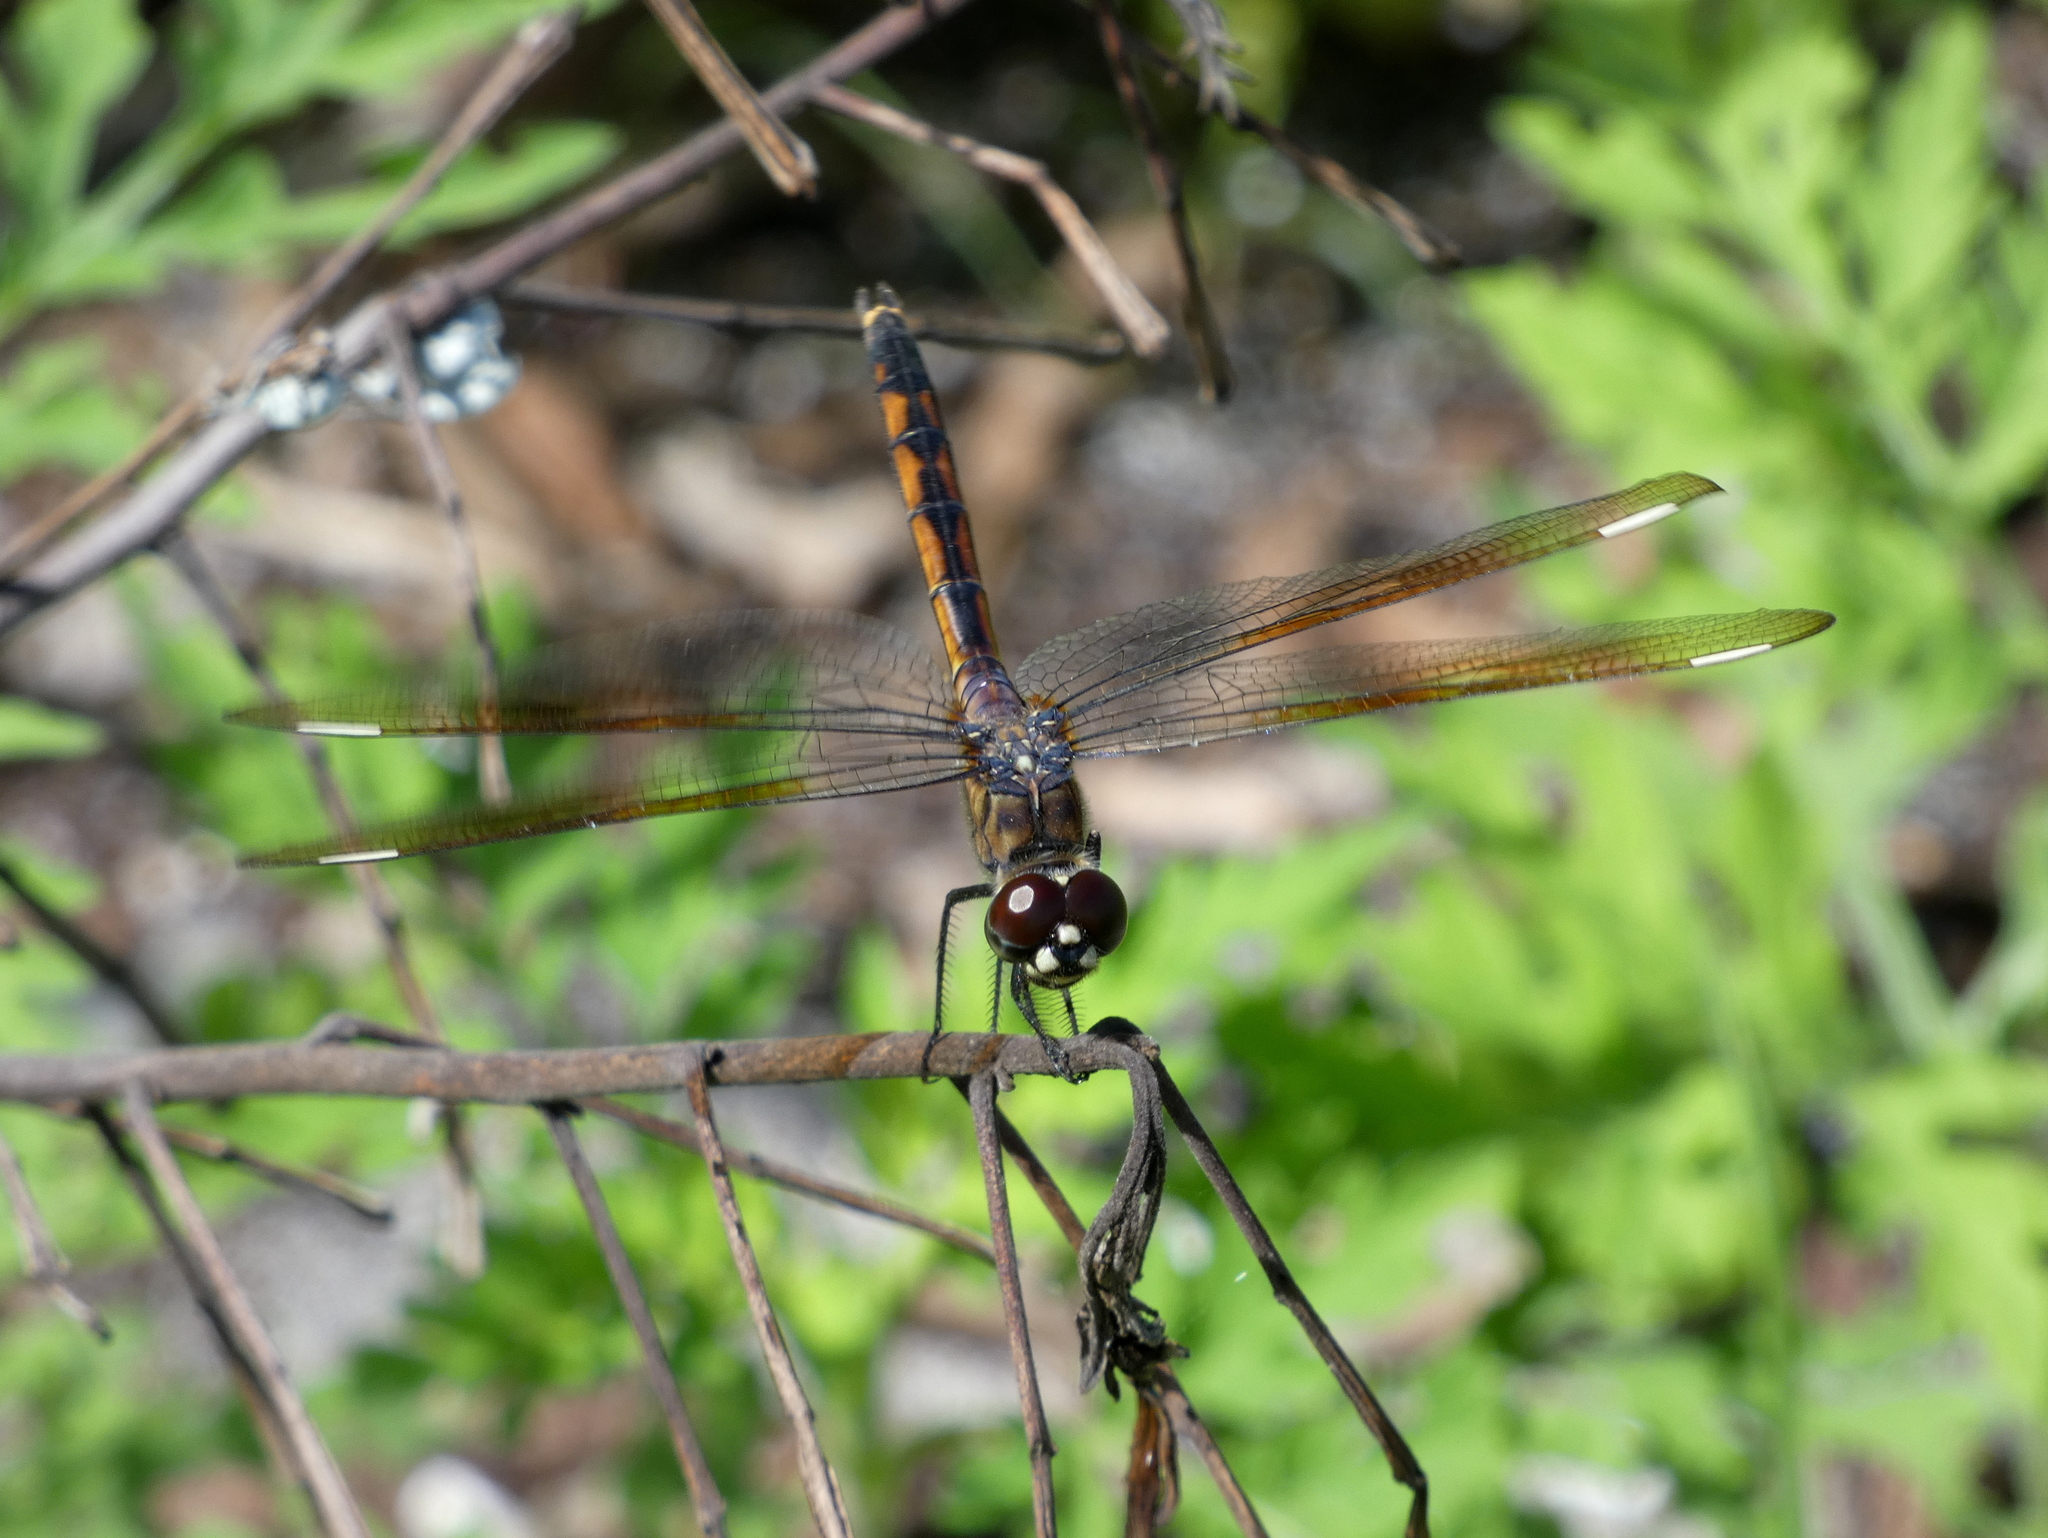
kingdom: Animalia
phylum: Arthropoda
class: Insecta
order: Odonata
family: Libellulidae
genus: Brachymesia
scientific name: Brachymesia gravida
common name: Four-spotted pennant
